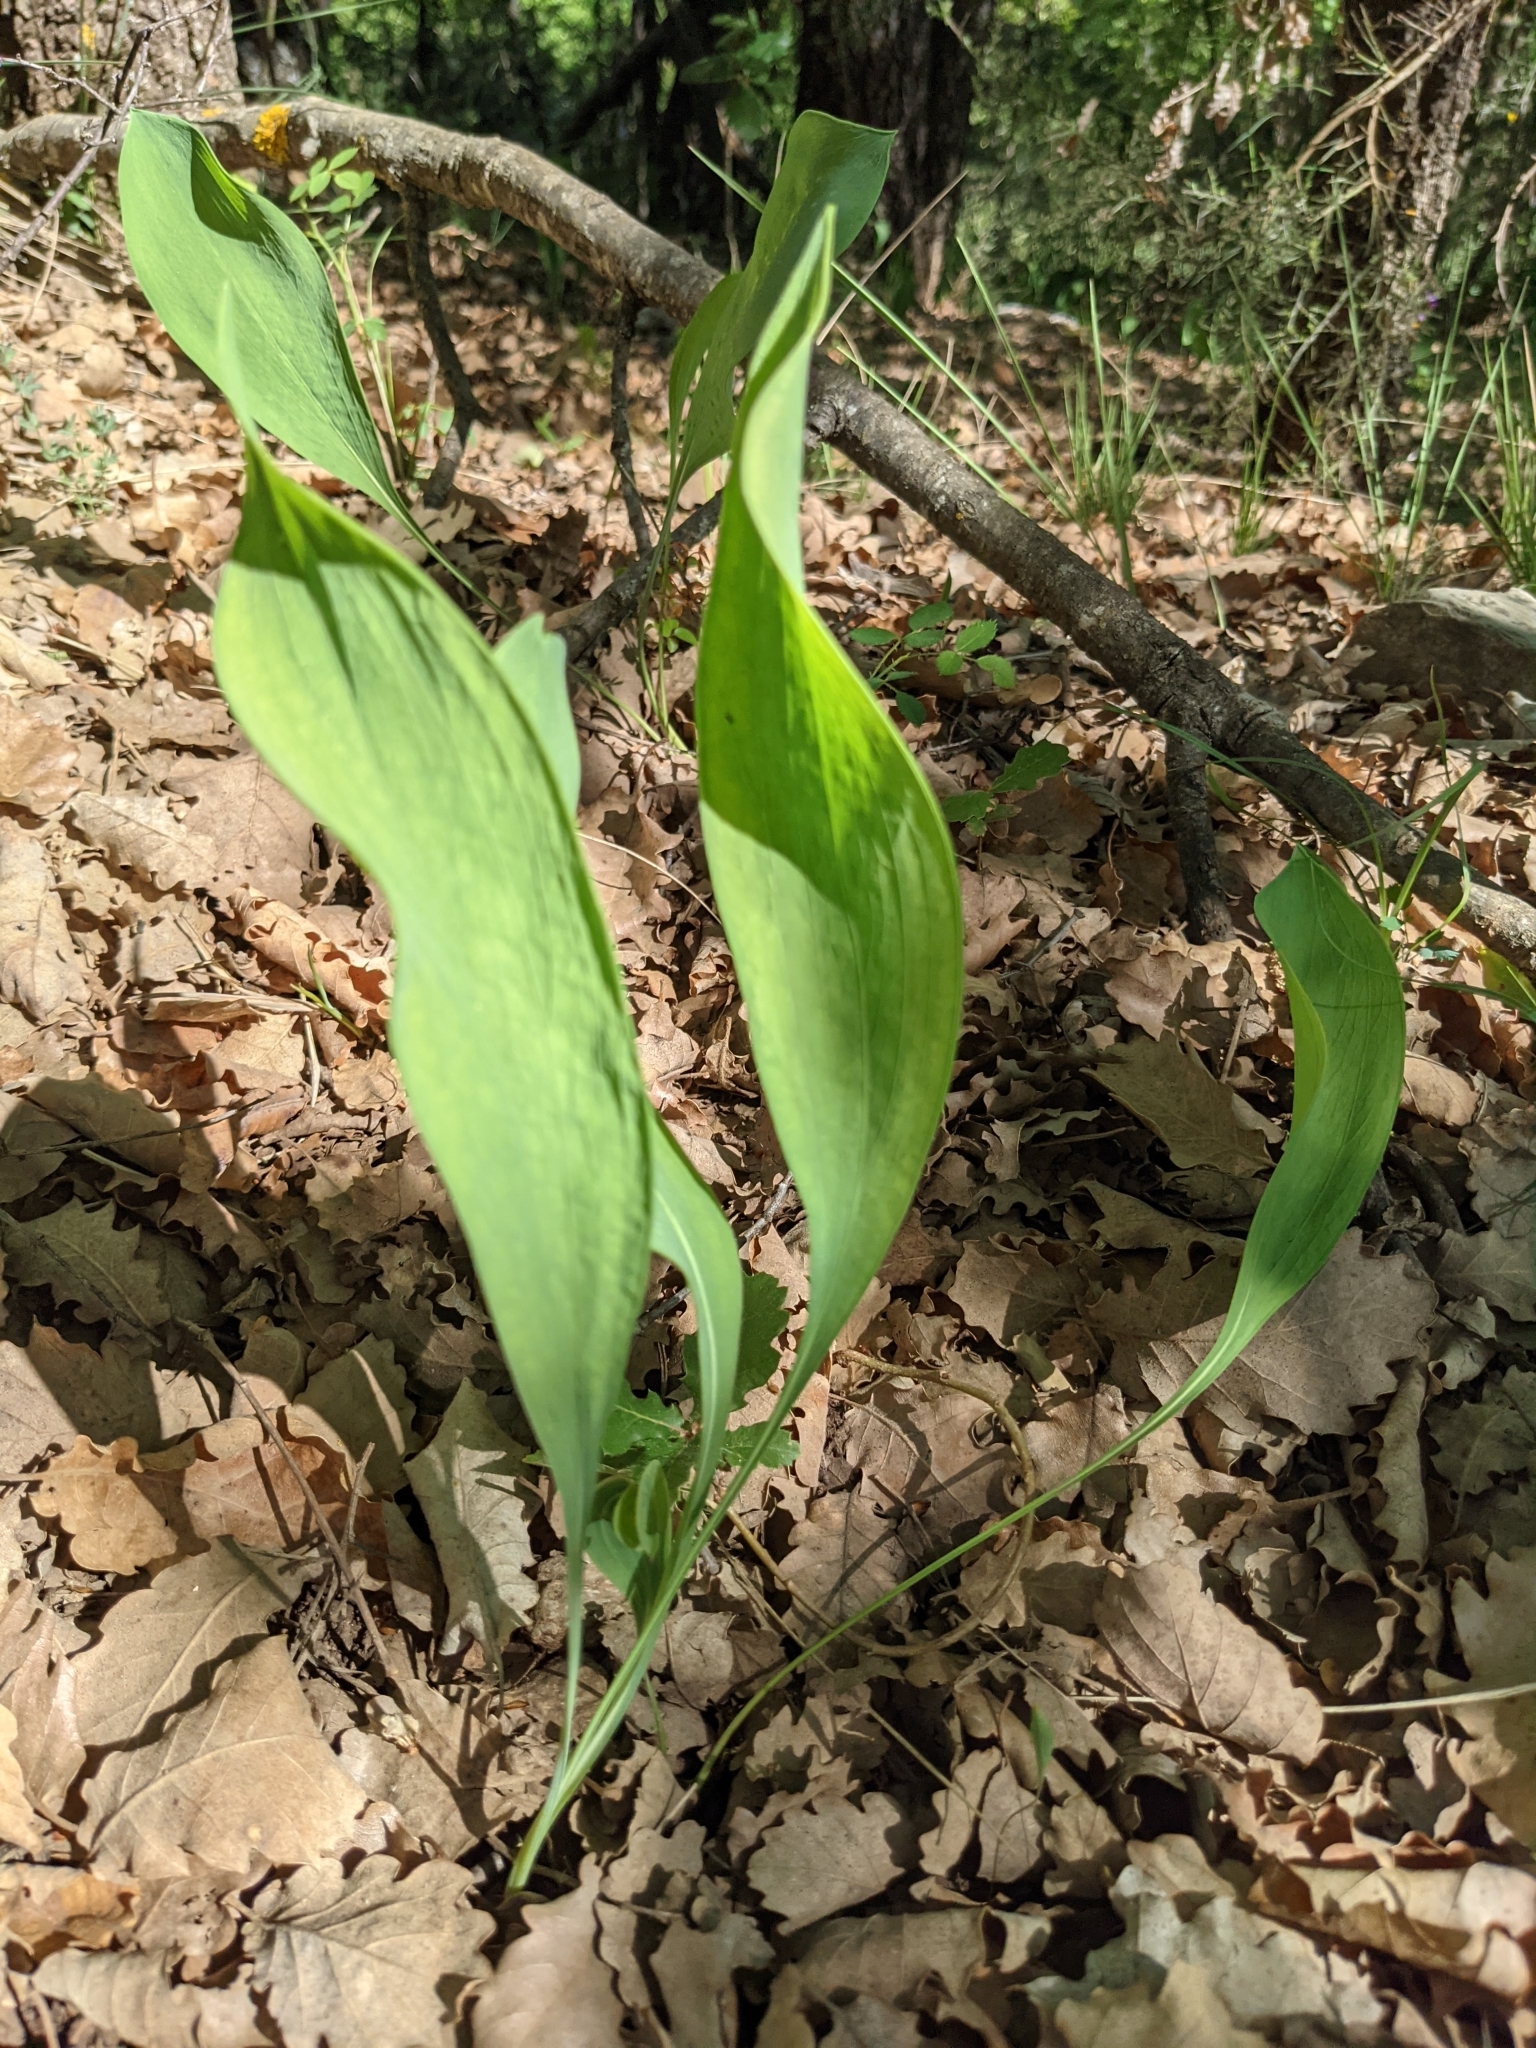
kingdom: Plantae
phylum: Tracheophyta
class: Liliopsida
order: Asparagales
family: Asparagaceae
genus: Convallaria
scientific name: Convallaria majalis
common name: Lily-of-the-valley
